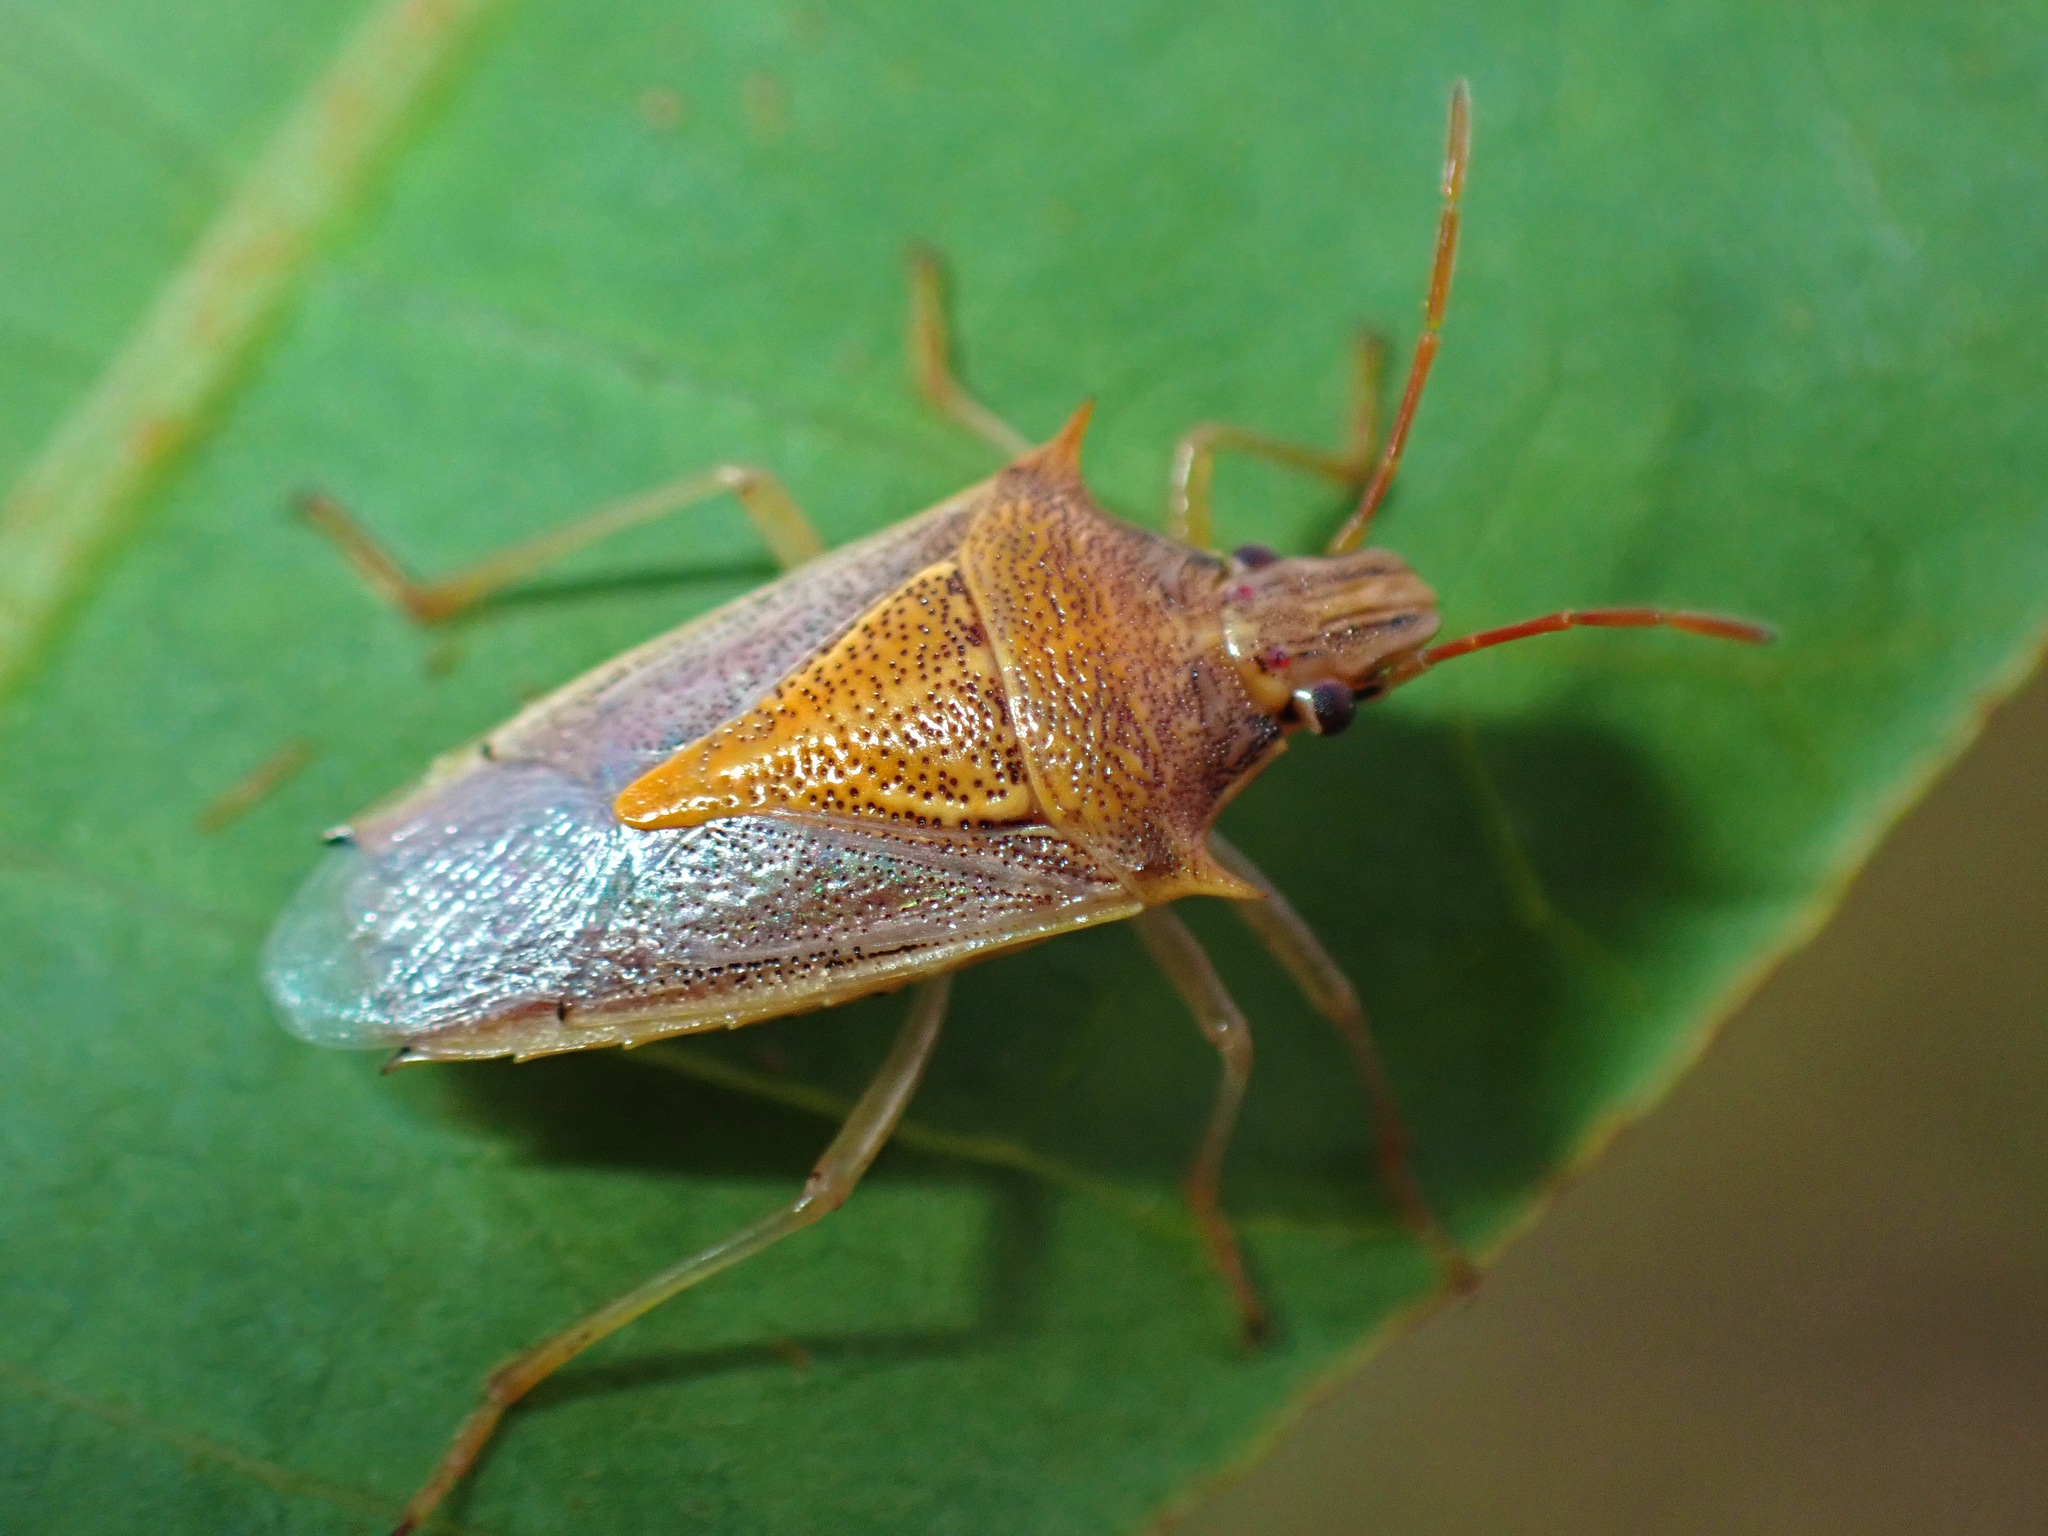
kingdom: Animalia
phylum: Arthropoda
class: Insecta
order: Hemiptera
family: Pentatomidae
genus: Oebalus
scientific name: Oebalus pugnax
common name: Rice stink bug
